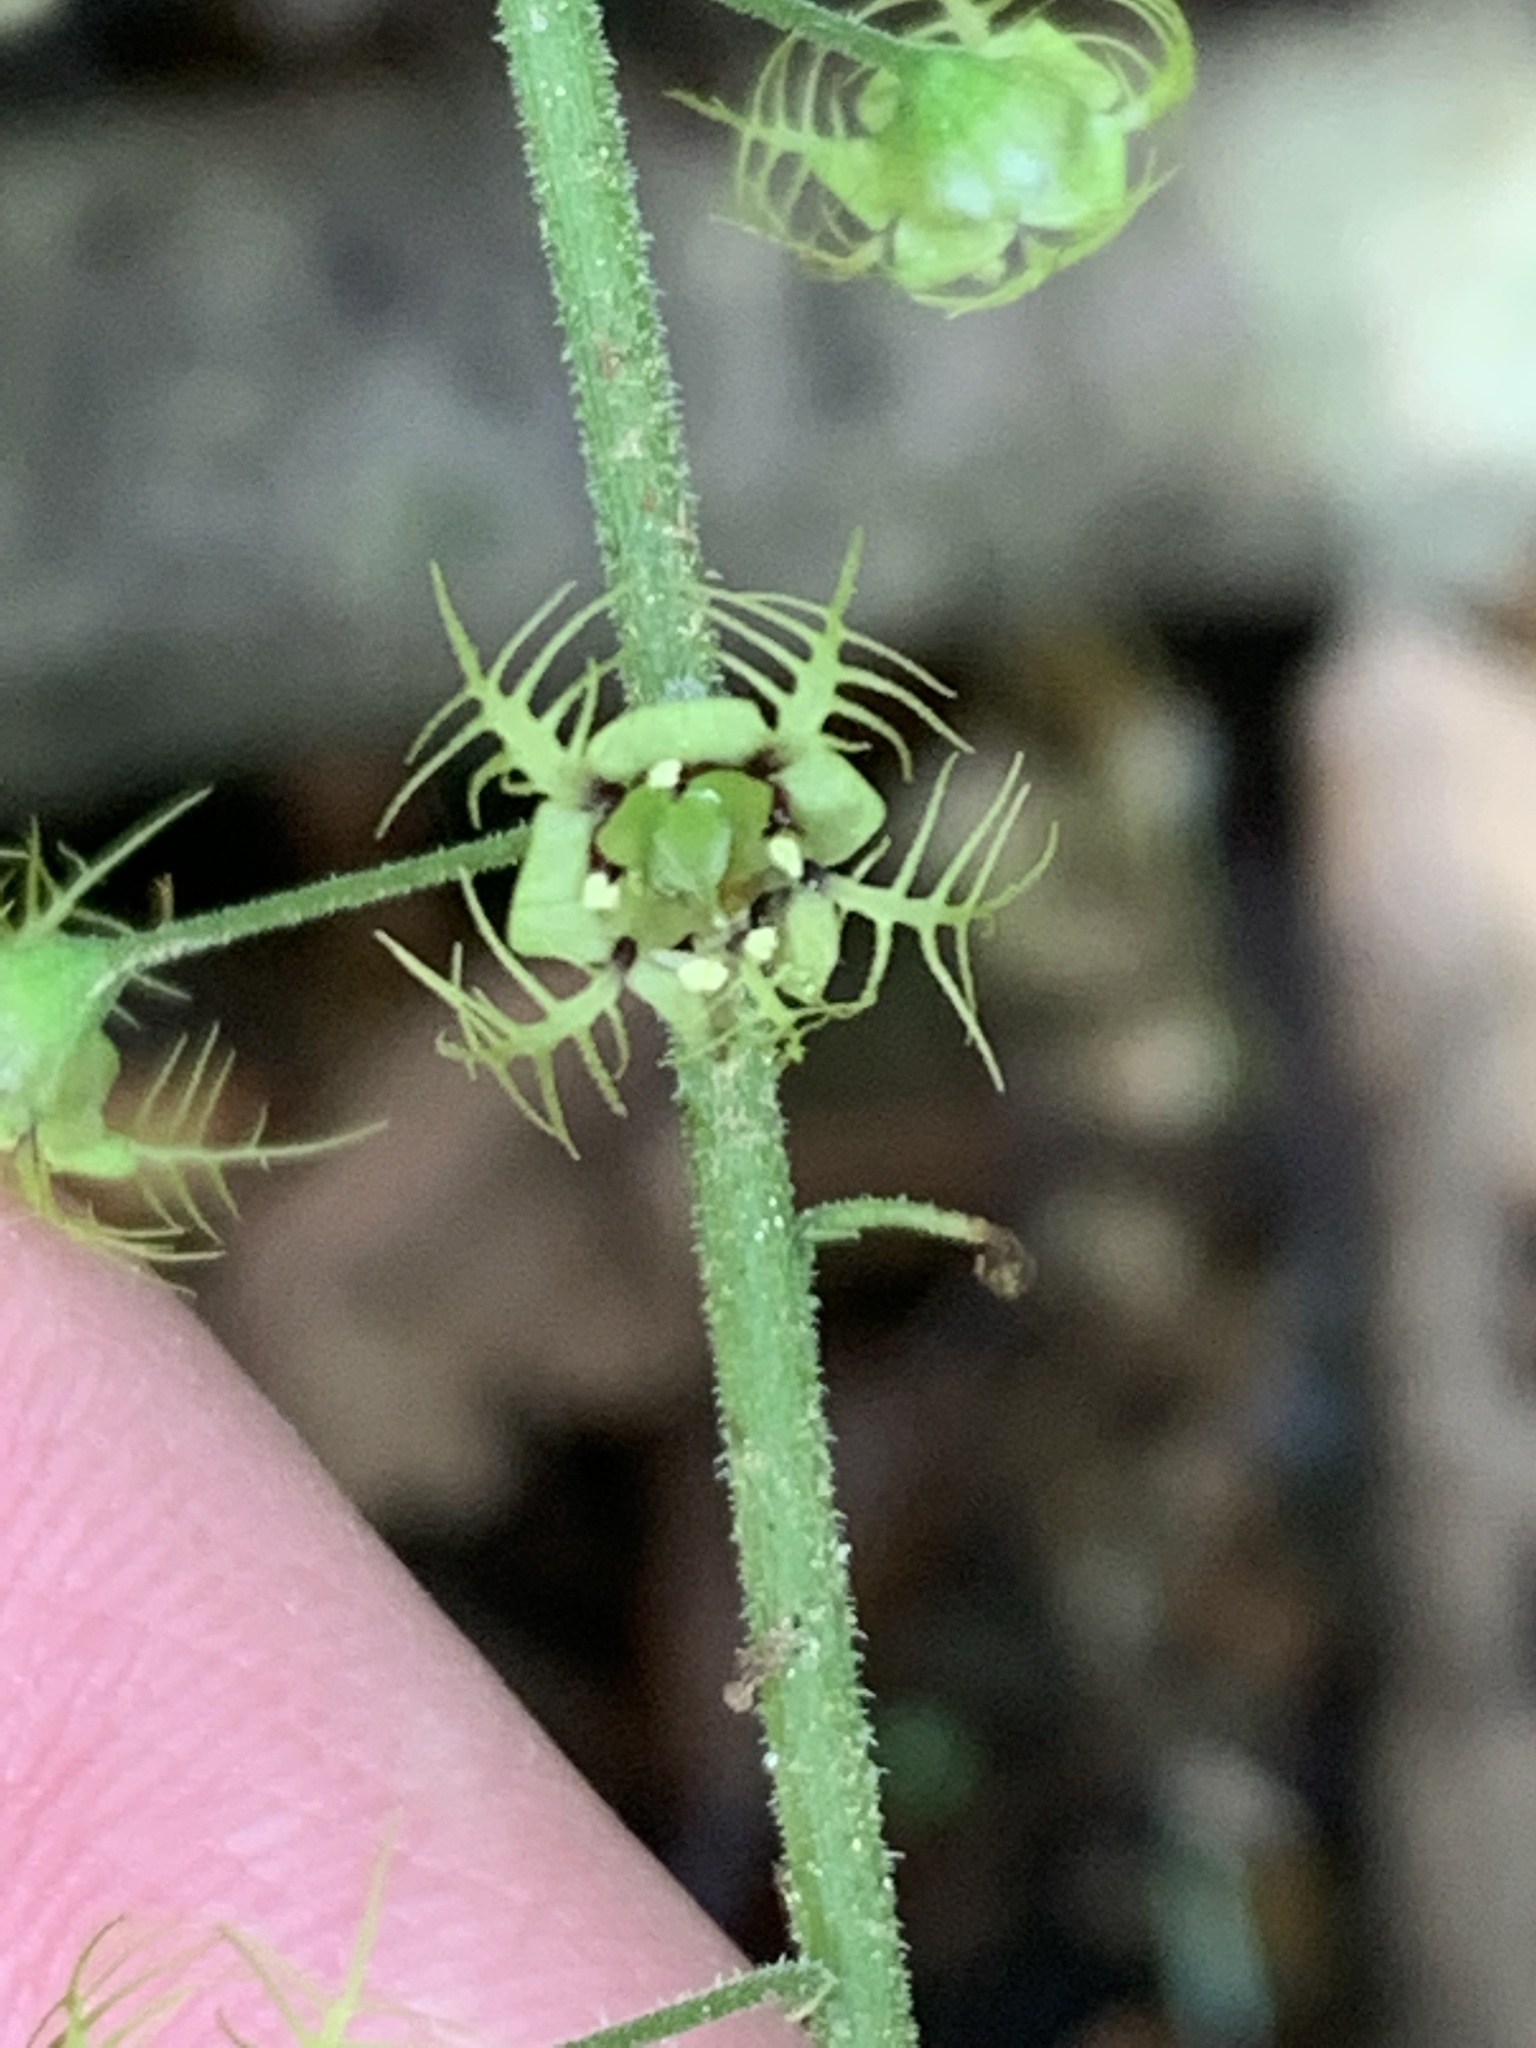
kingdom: Plantae
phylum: Tracheophyta
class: Magnoliopsida
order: Saxifragales
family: Saxifragaceae
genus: Mitellastra
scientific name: Mitellastra caulescens
